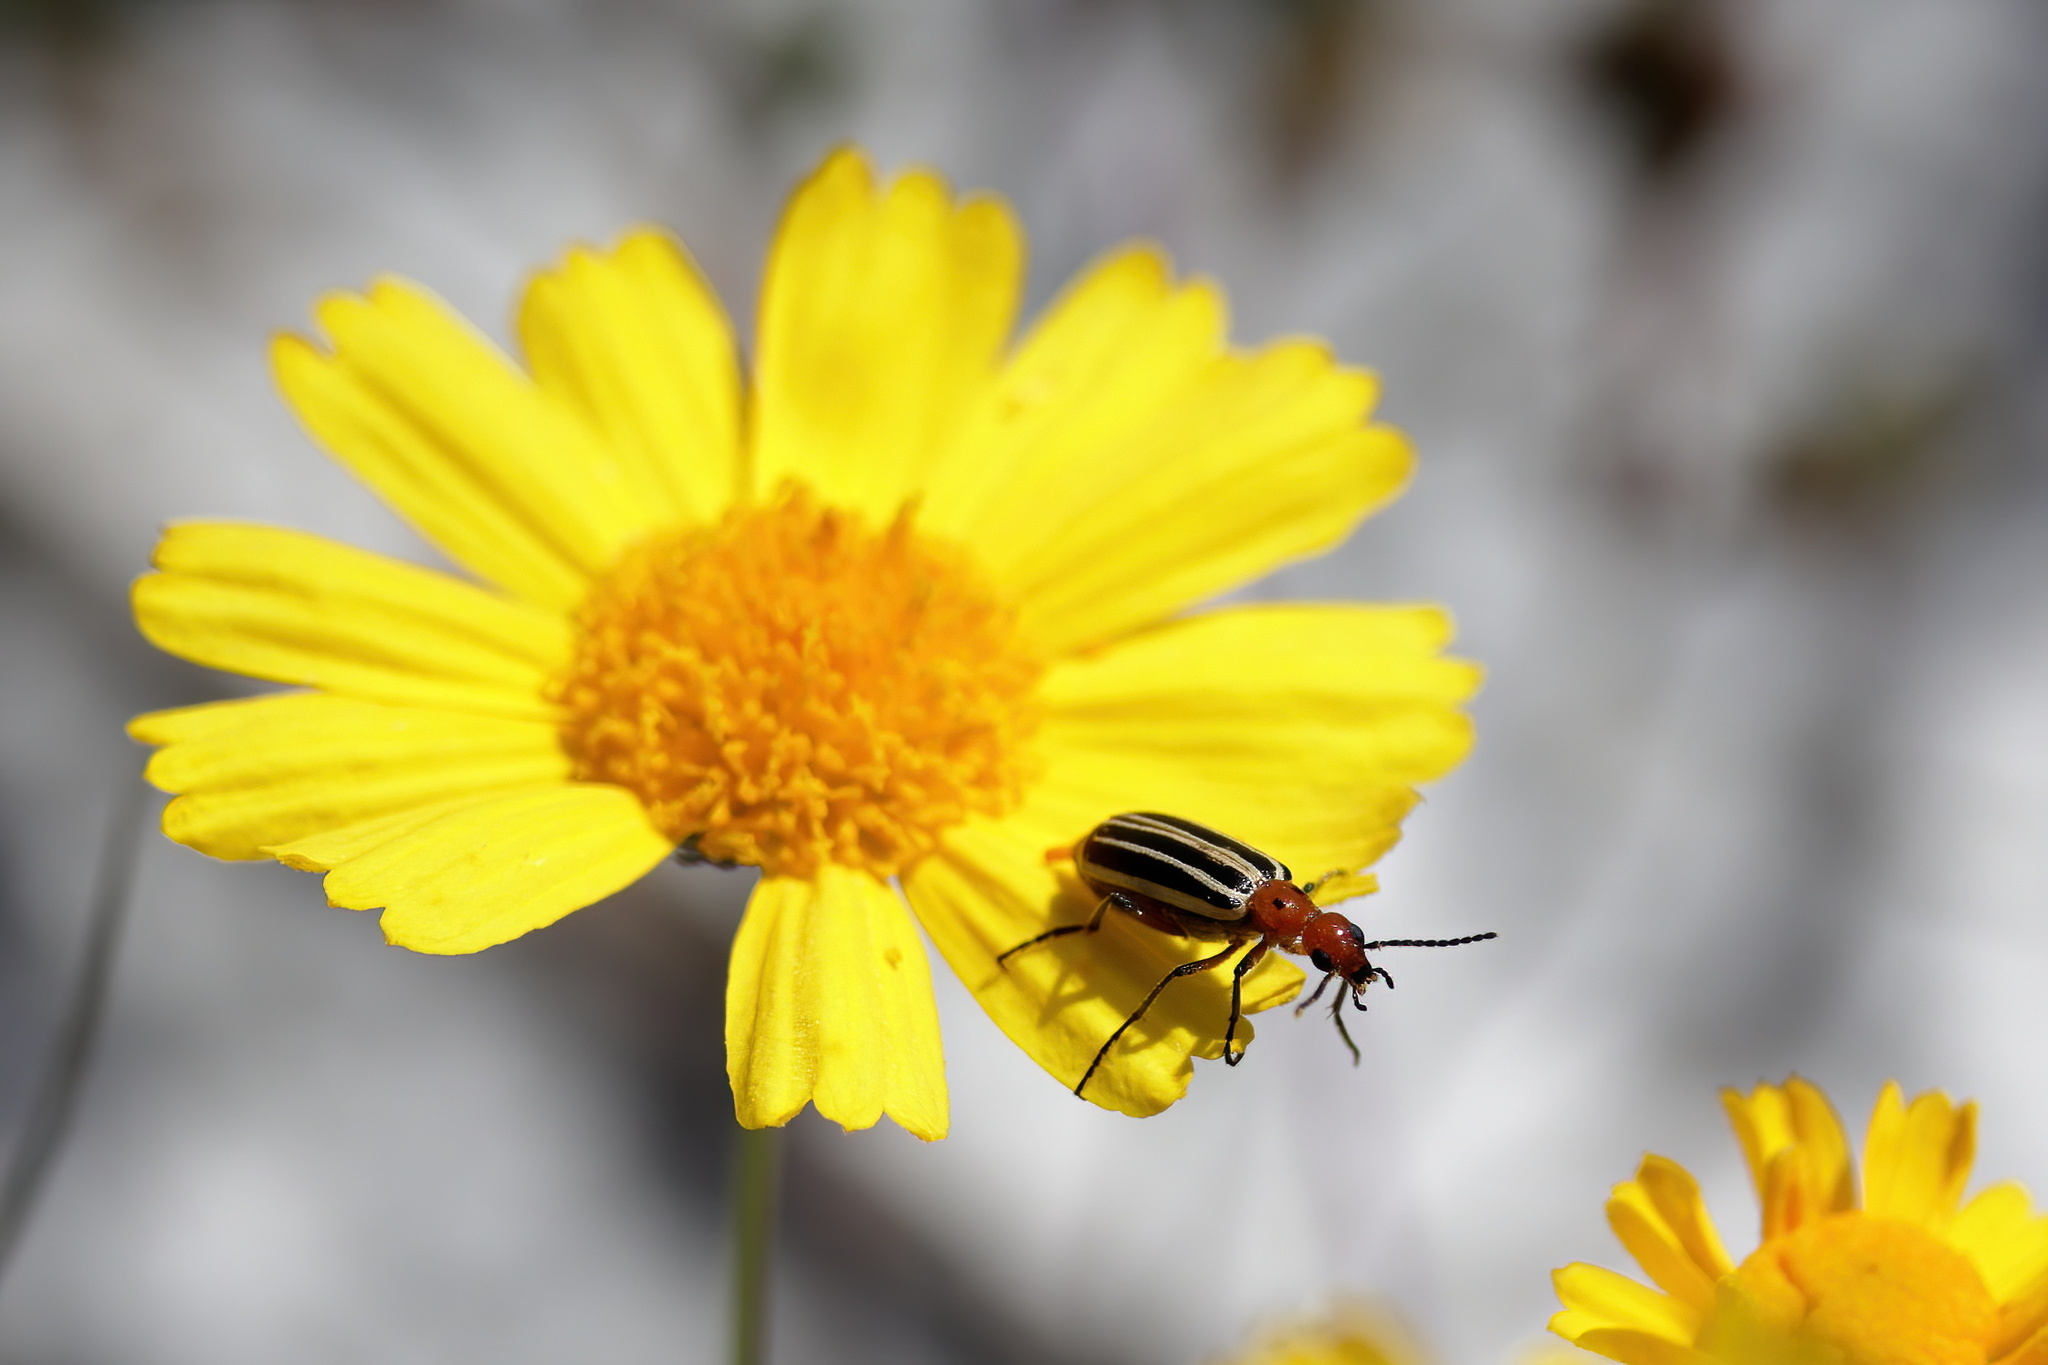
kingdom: Animalia
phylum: Arthropoda
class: Insecta
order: Coleoptera
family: Meloidae
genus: Pyrota
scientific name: Pyrota
